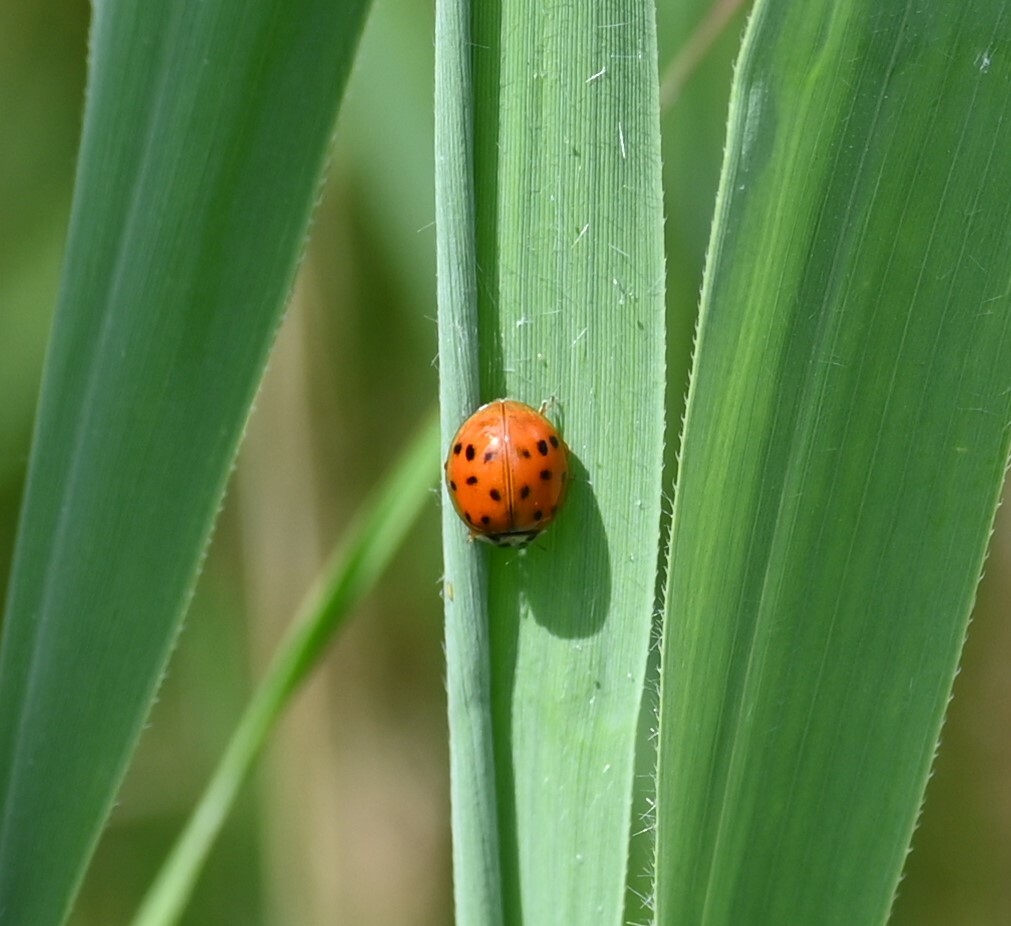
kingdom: Animalia
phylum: Arthropoda
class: Insecta
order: Coleoptera
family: Coccinellidae
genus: Harmonia
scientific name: Harmonia axyridis
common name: Harlequin ladybird
